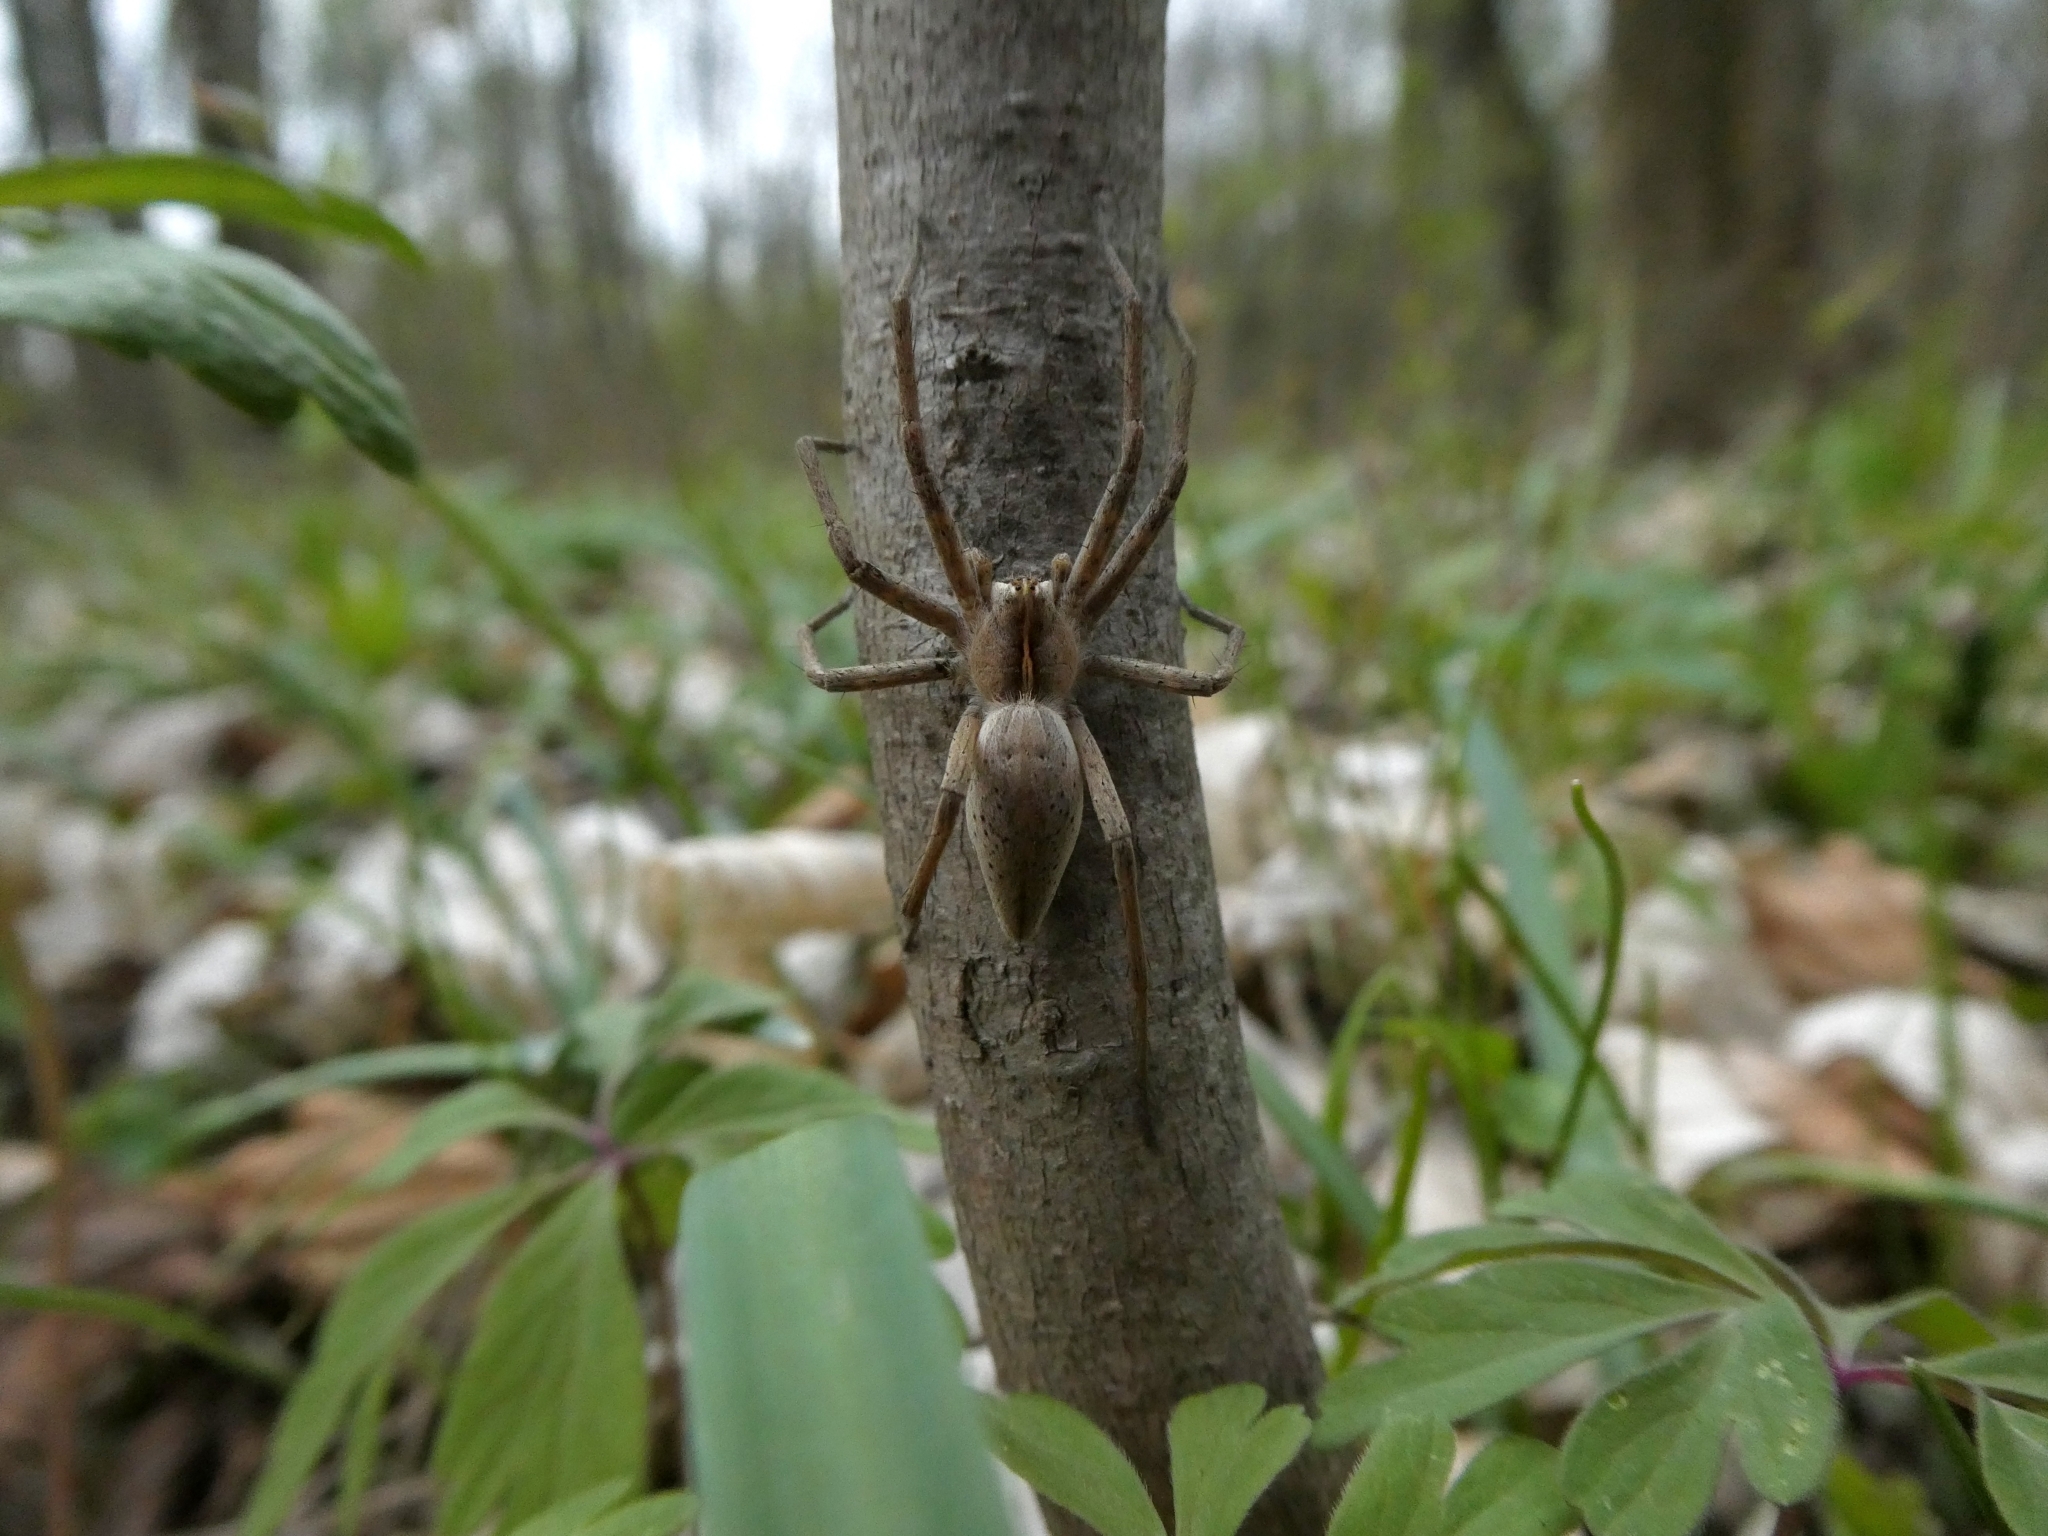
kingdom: Animalia
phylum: Arthropoda
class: Arachnida
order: Araneae
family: Pisauridae
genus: Pisaura
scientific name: Pisaura mirabilis
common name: Tent spider
